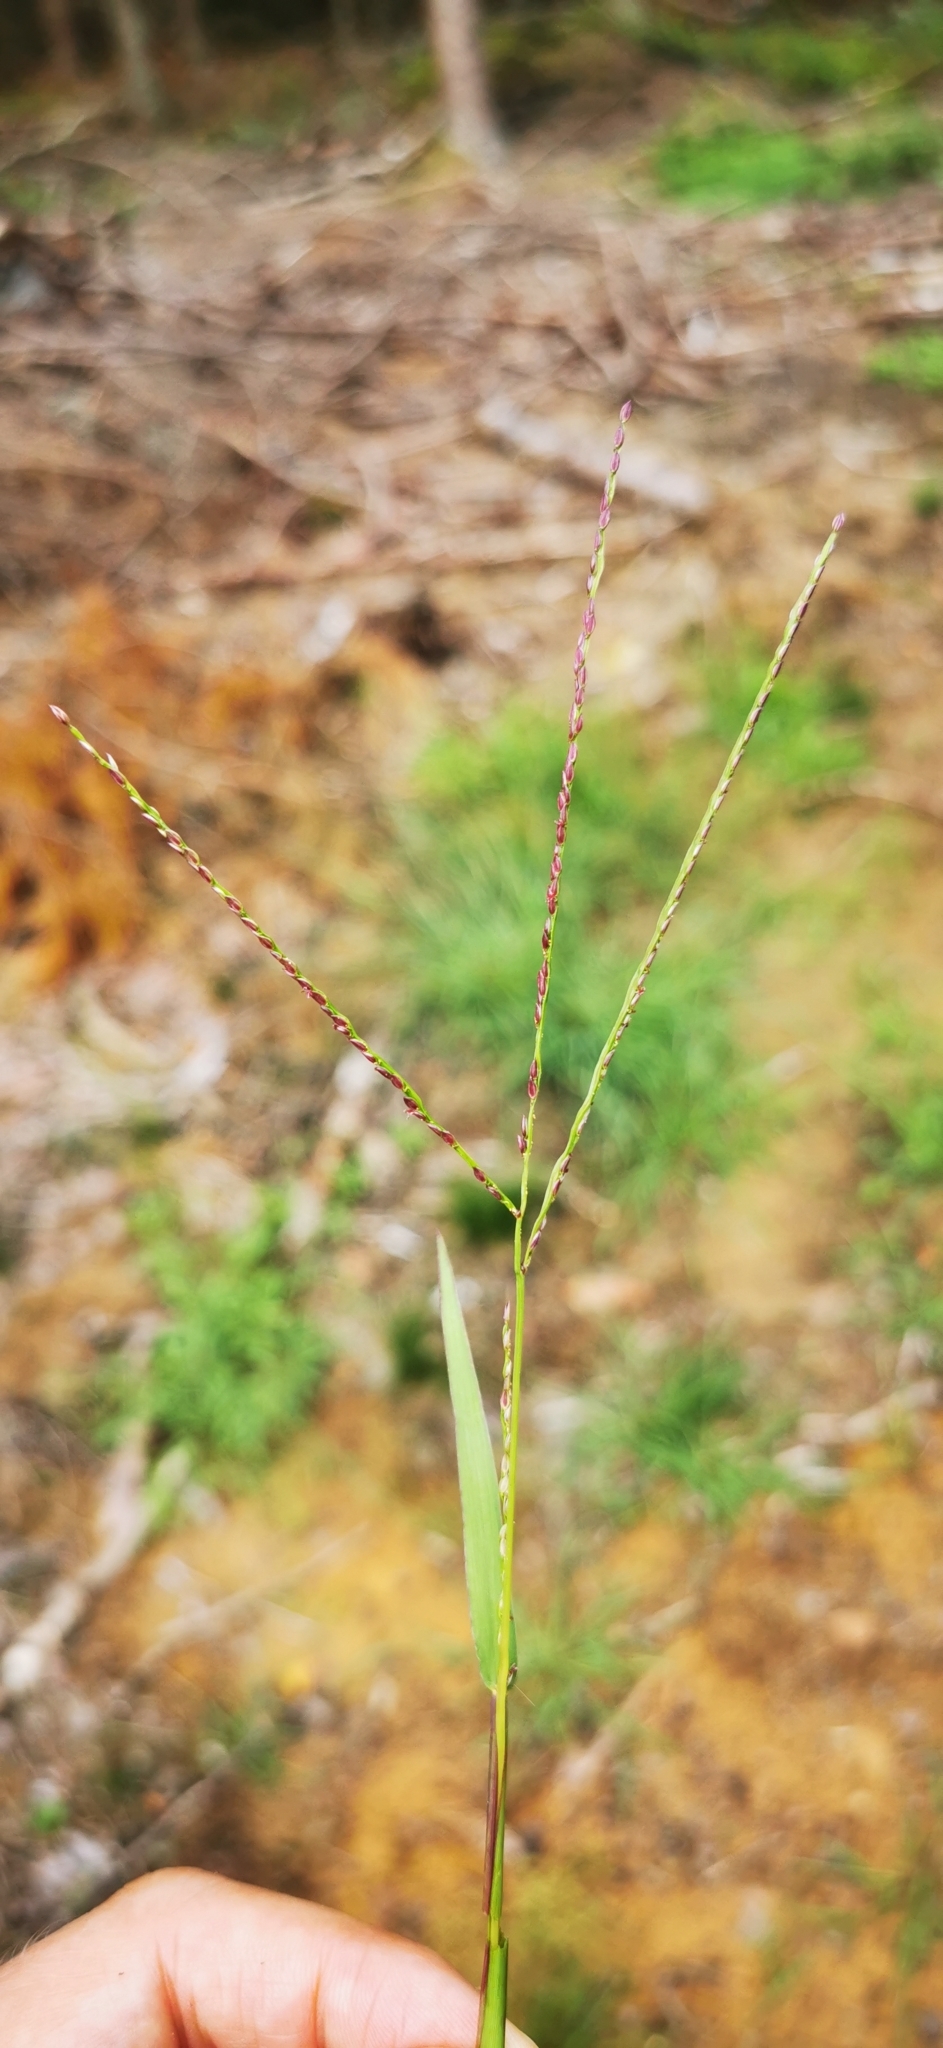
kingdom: Plantae
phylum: Tracheophyta
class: Liliopsida
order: Poales
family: Poaceae
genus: Digitaria
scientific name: Digitaria ischaemum
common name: Smooth crabgrass
